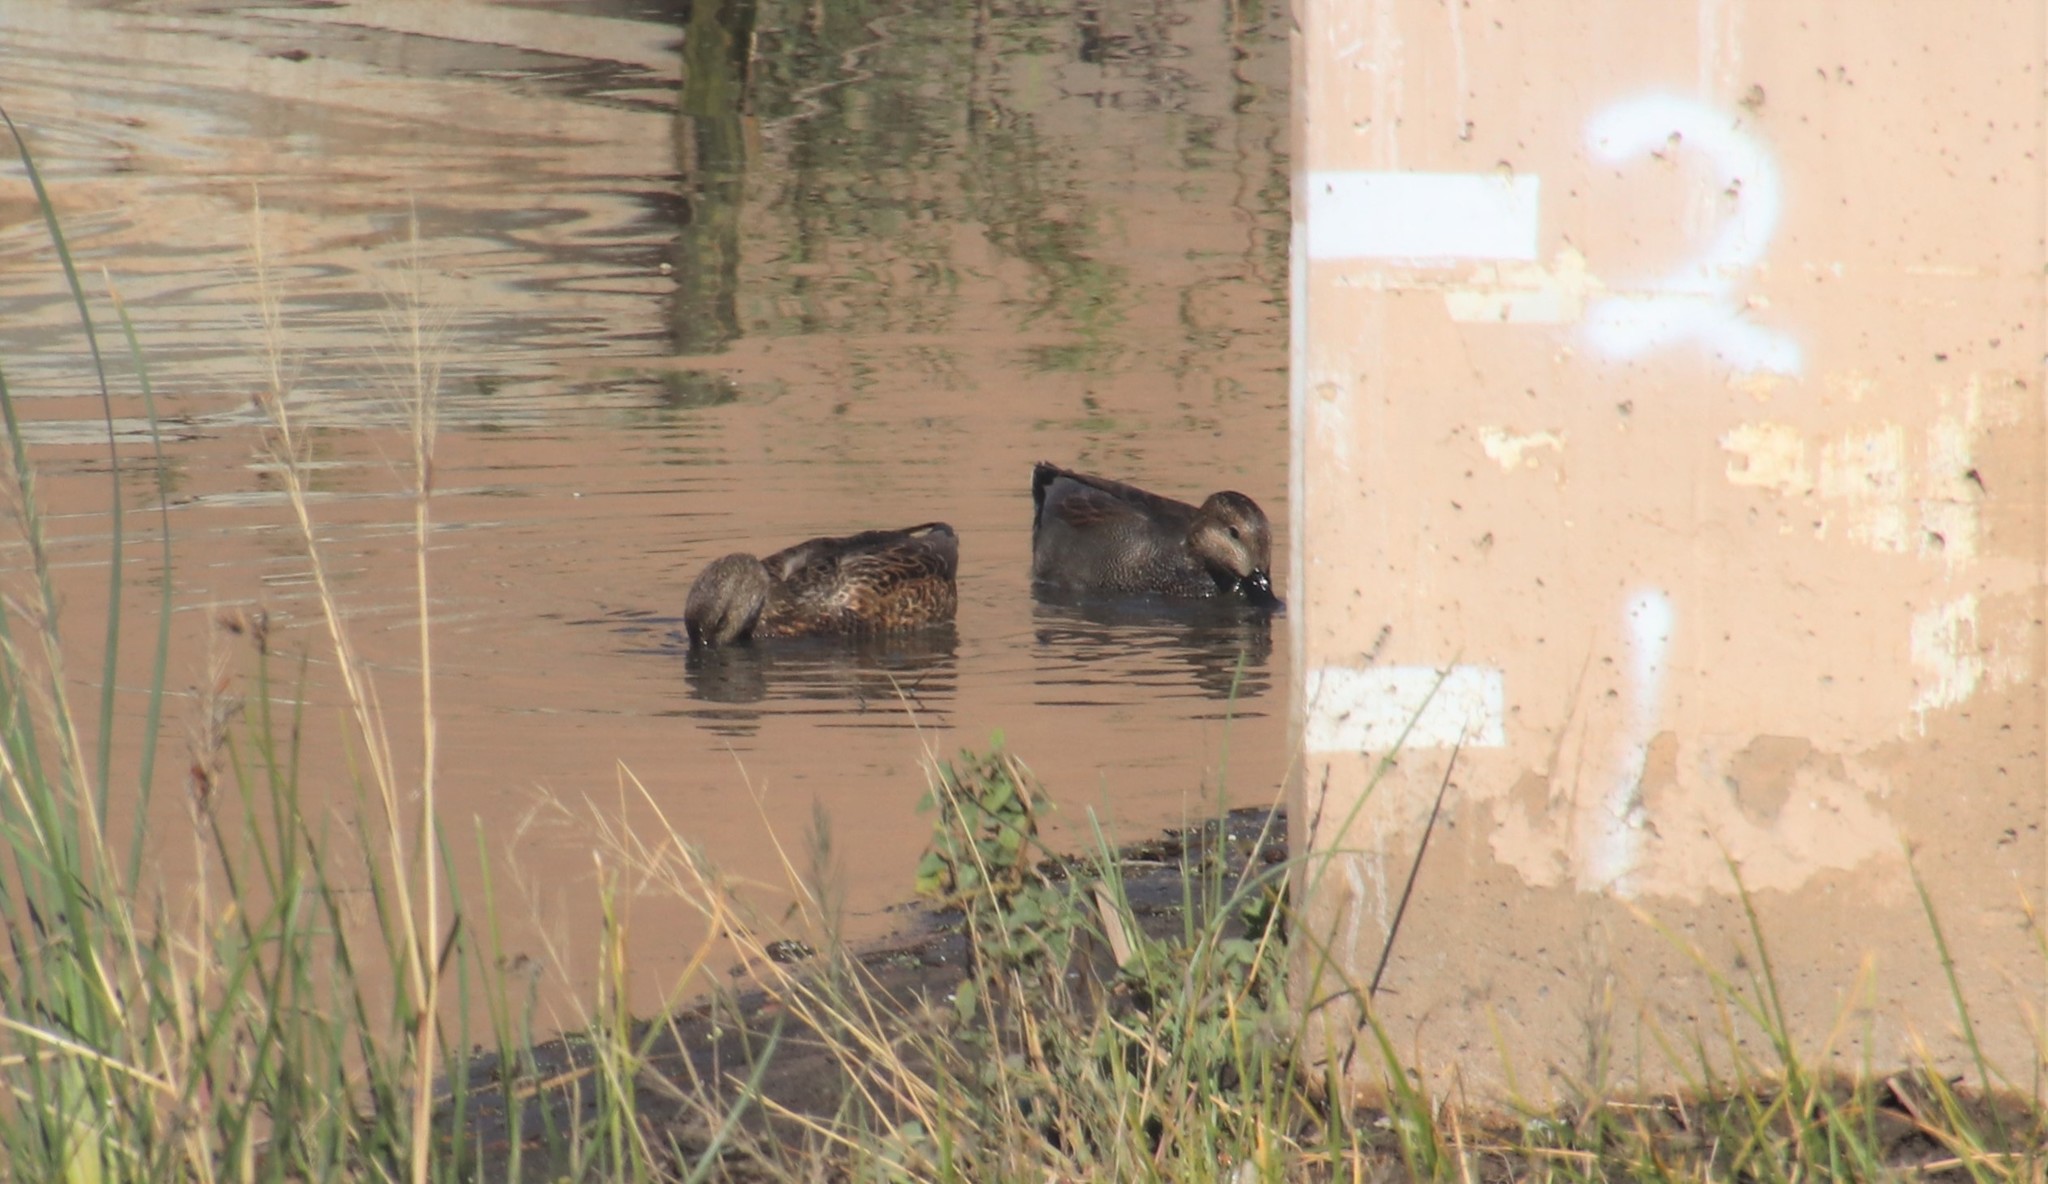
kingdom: Animalia
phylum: Chordata
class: Aves
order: Anseriformes
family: Anatidae
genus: Mareca
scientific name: Mareca strepera
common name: Gadwall
